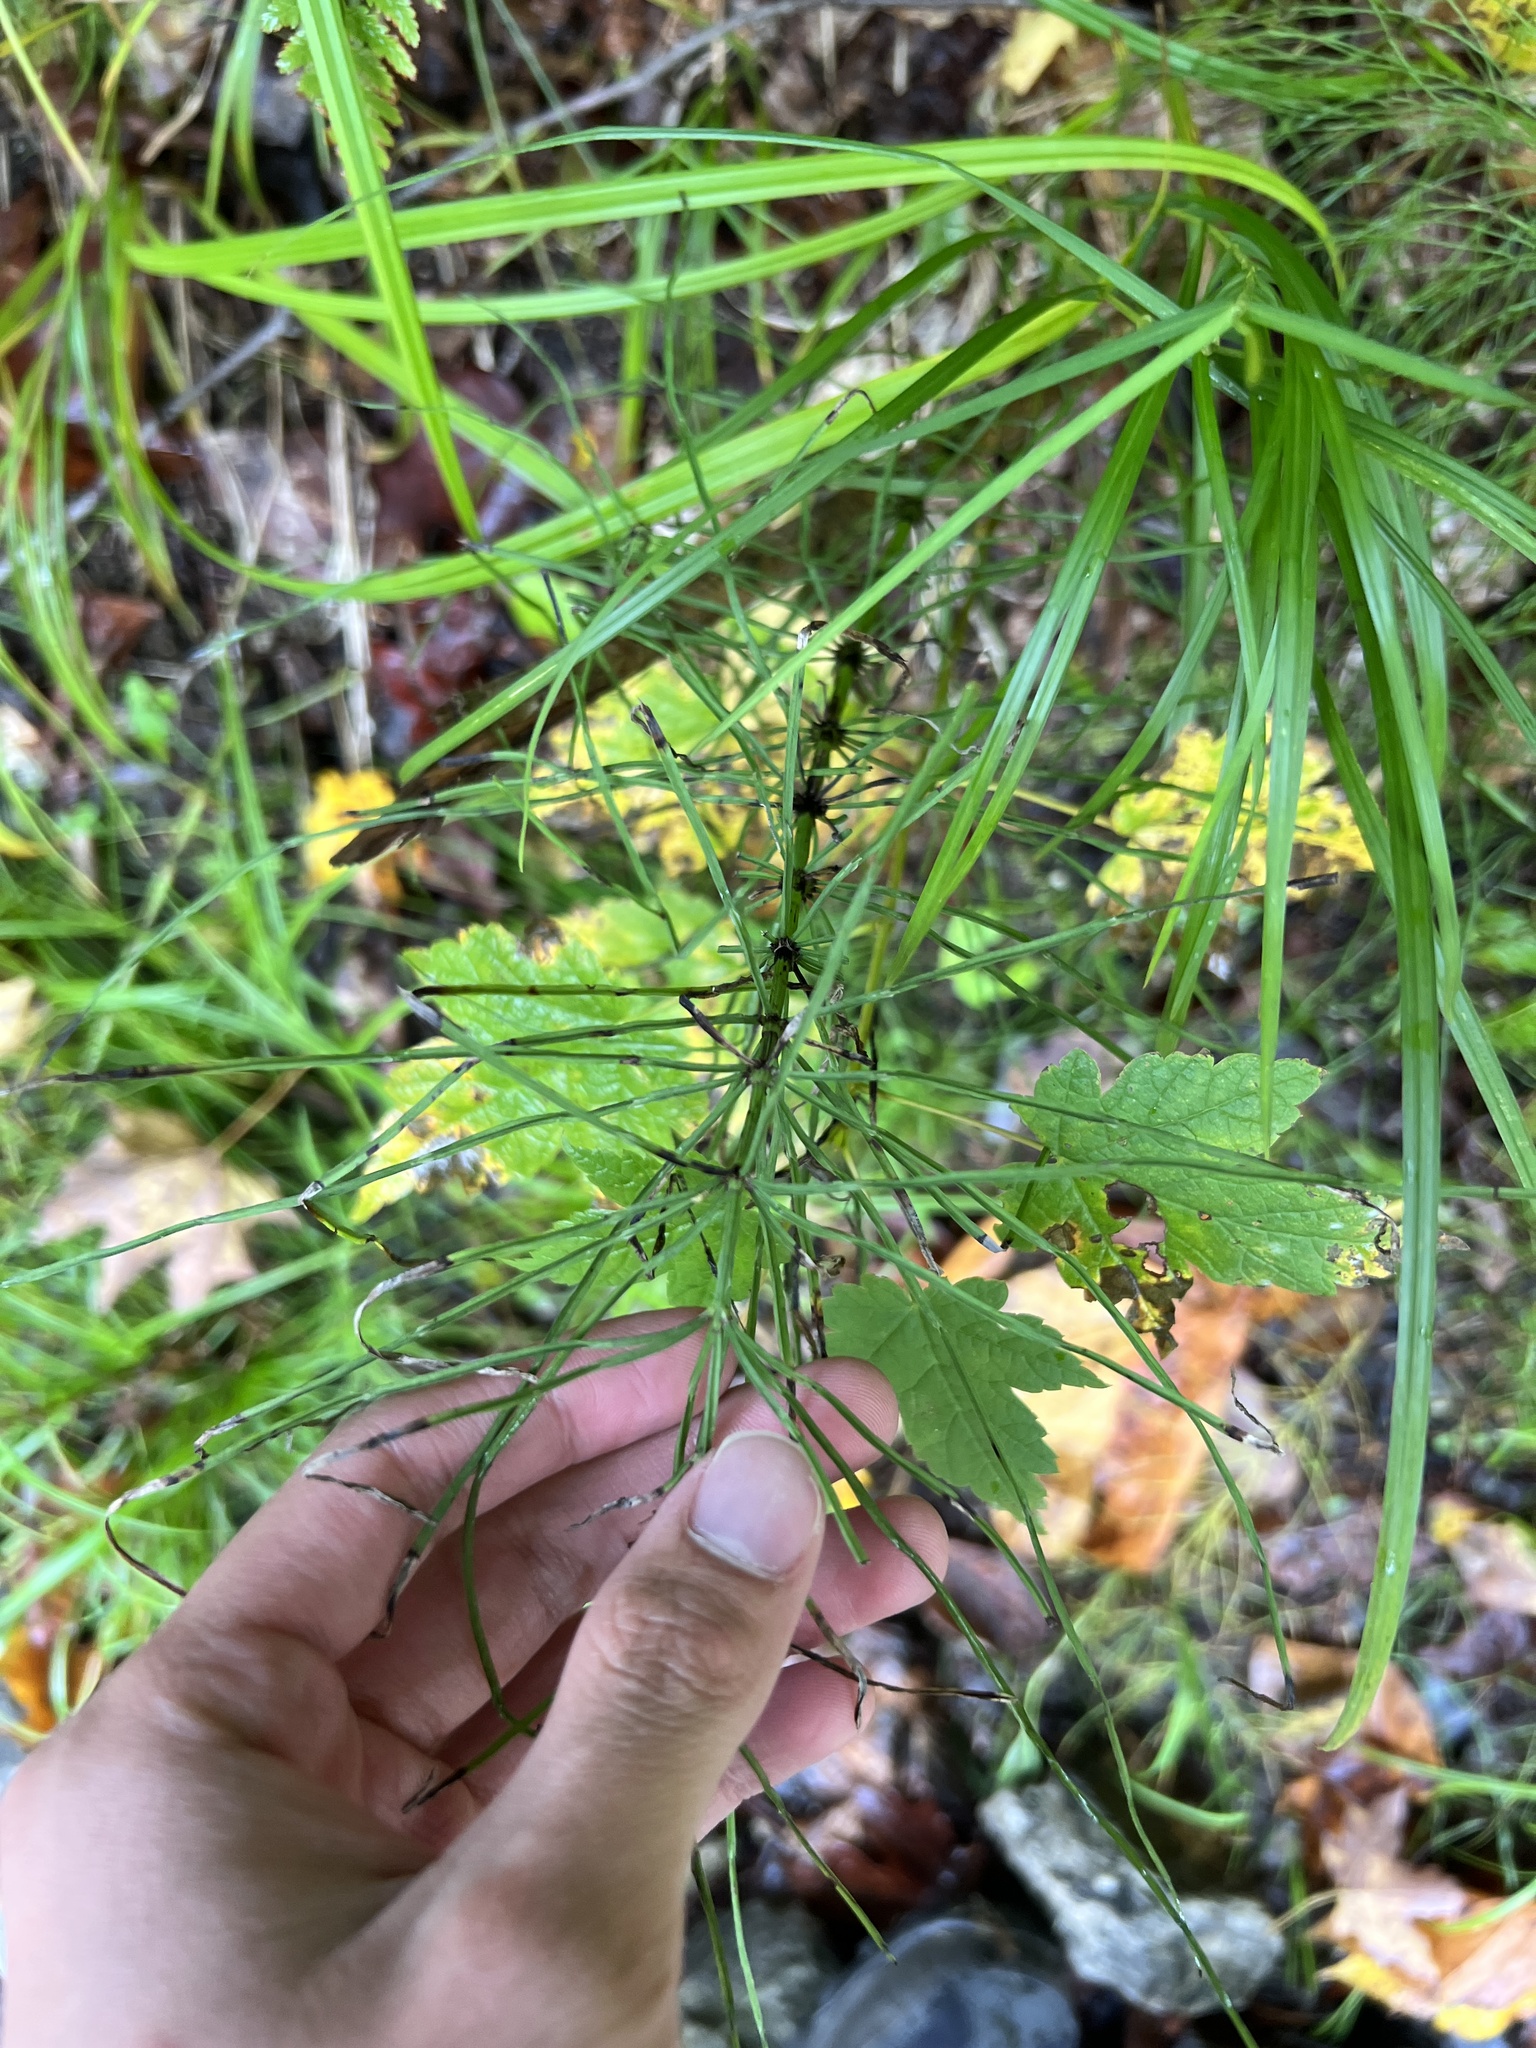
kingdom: Plantae
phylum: Tracheophyta
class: Polypodiopsida
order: Equisetales
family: Equisetaceae
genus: Equisetum
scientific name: Equisetum arvense
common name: Field horsetail
